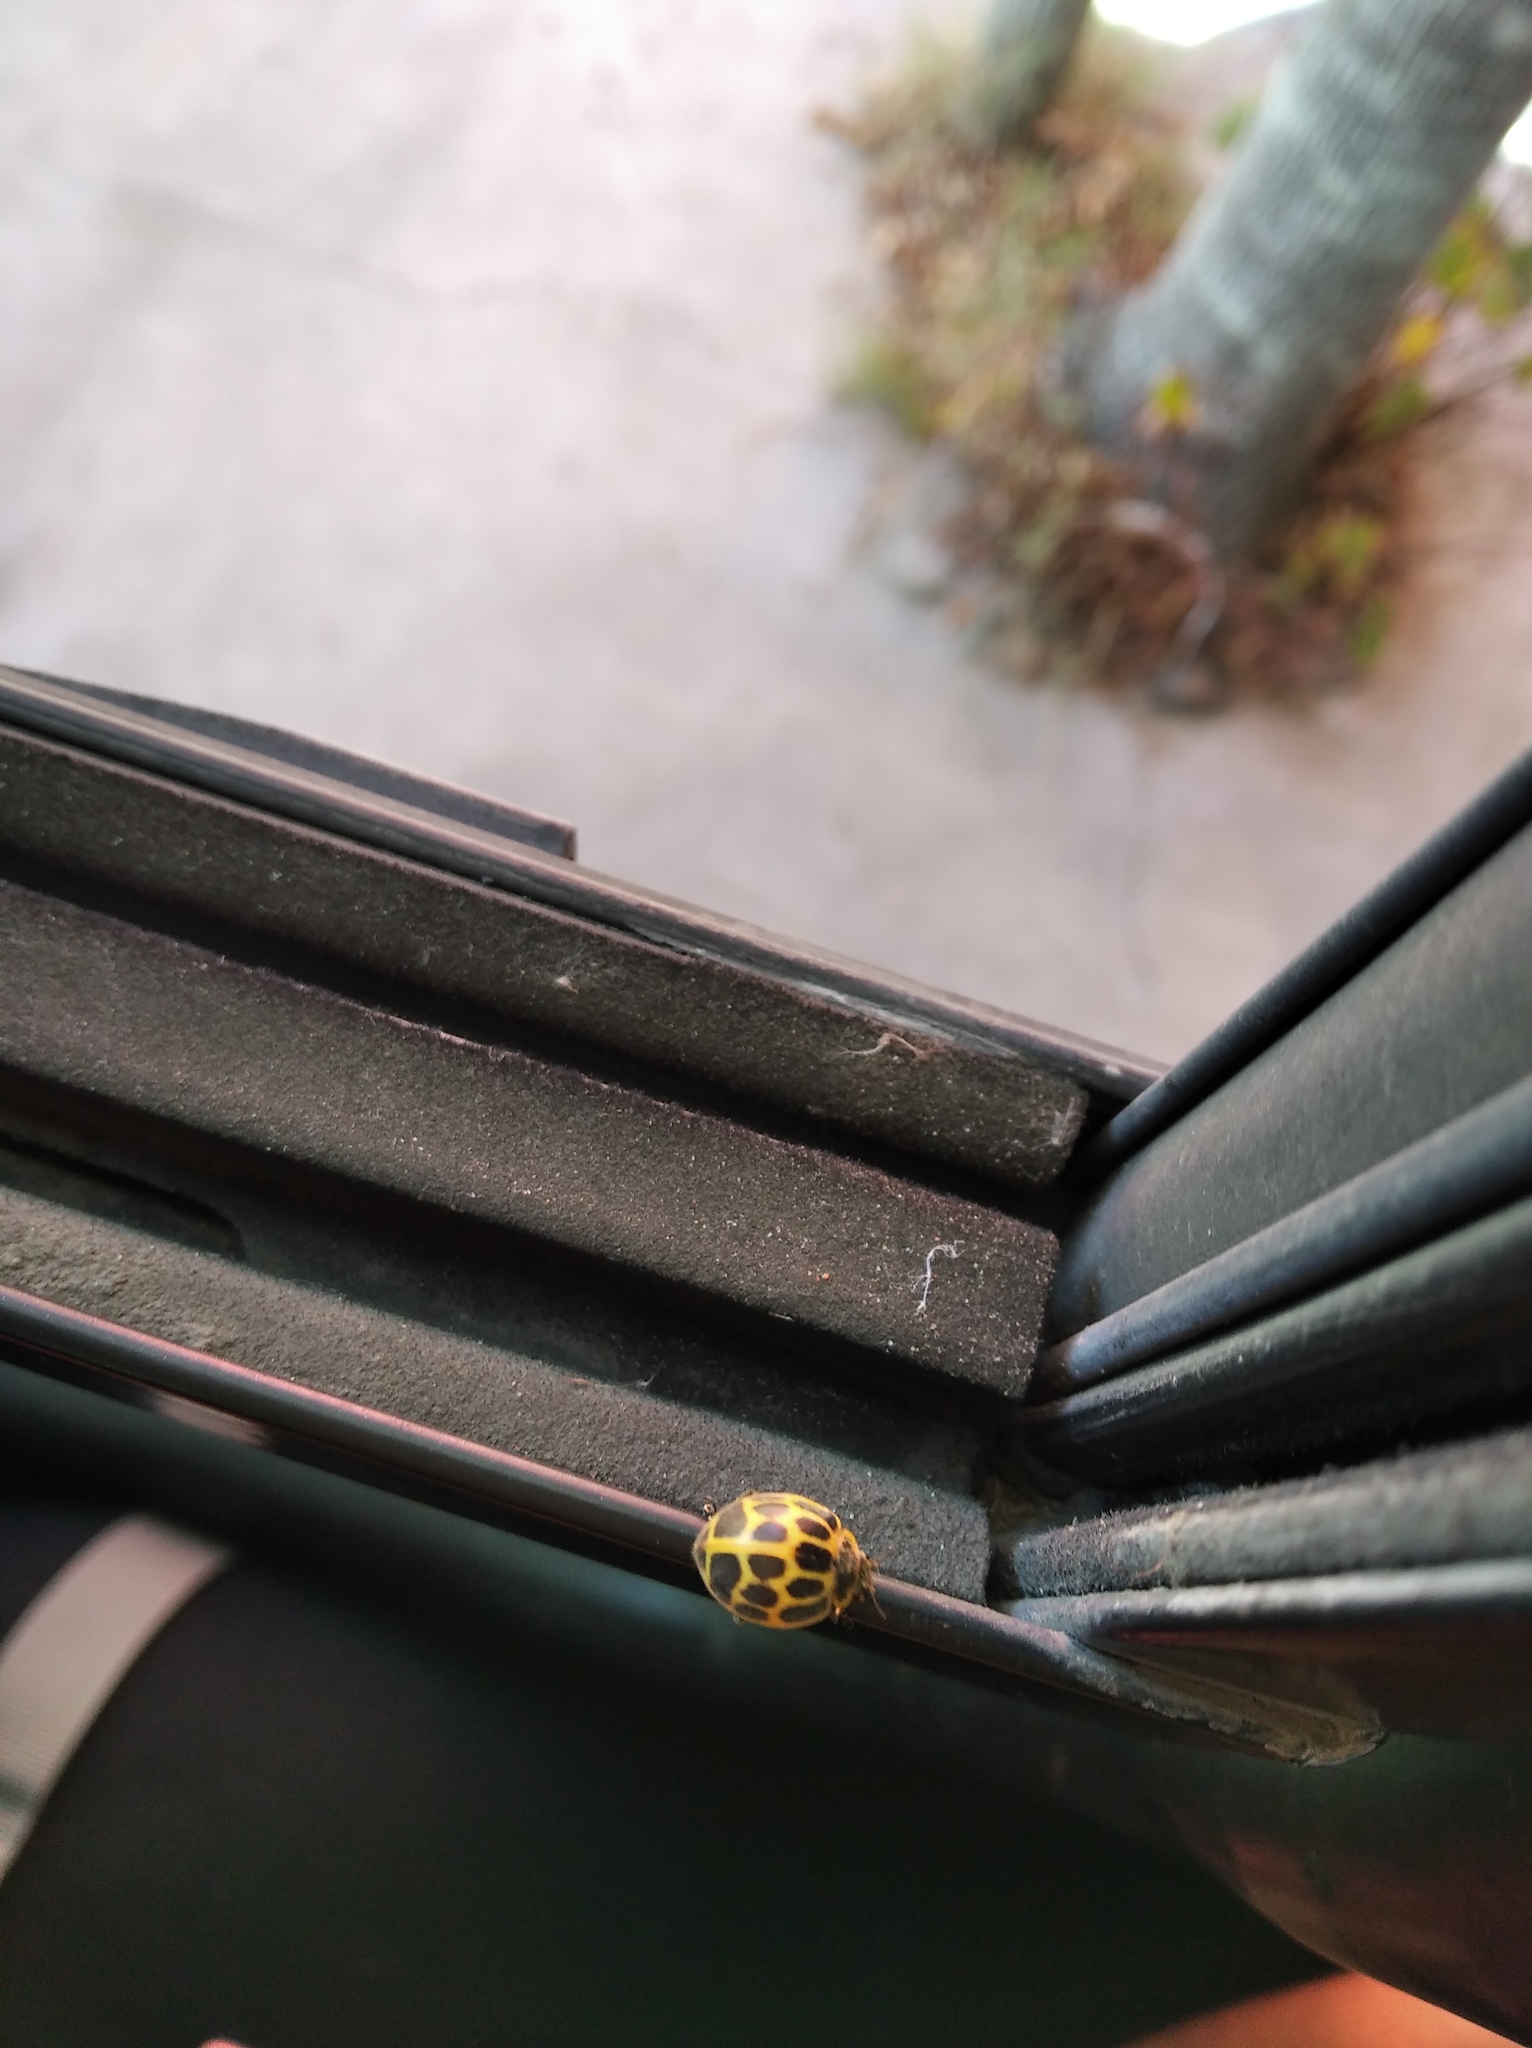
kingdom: Animalia
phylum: Arthropoda
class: Insecta
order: Coleoptera
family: Coccinellidae
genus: Epilachna
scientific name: Epilachna
